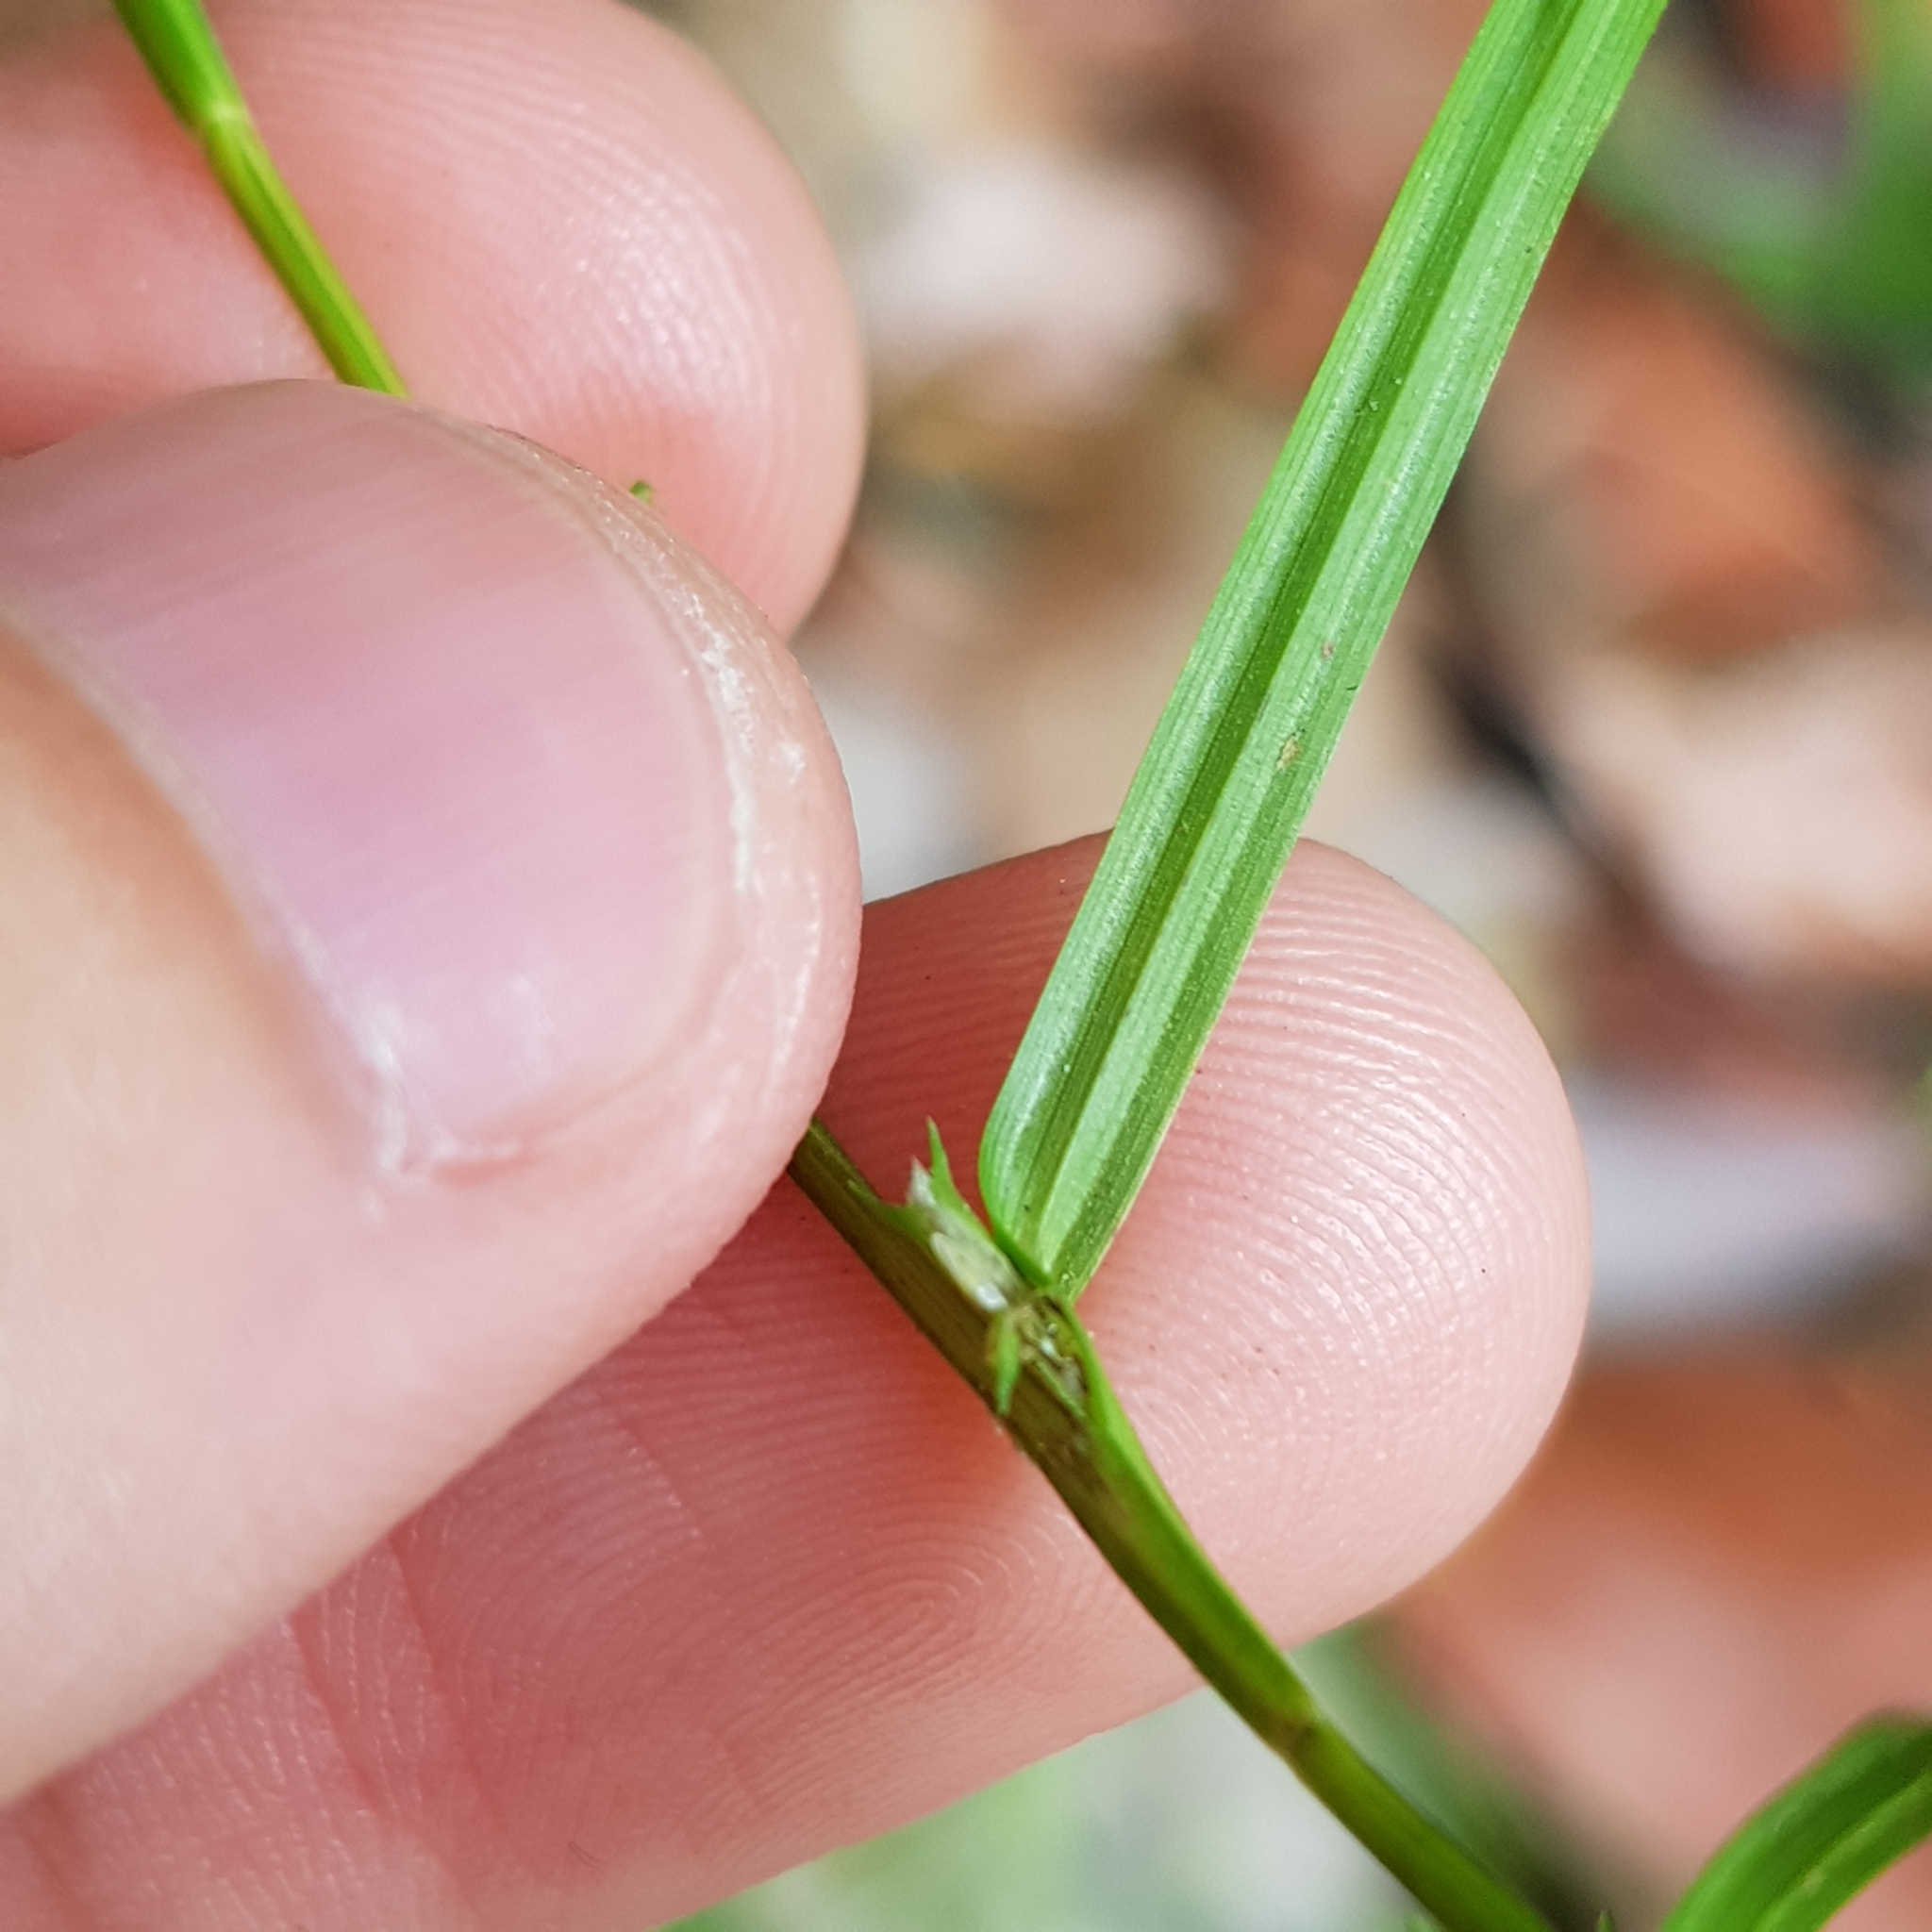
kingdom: Plantae
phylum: Tracheophyta
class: Liliopsida
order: Poales
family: Cyperaceae
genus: Diplacrum
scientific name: Diplacrum caricinum
